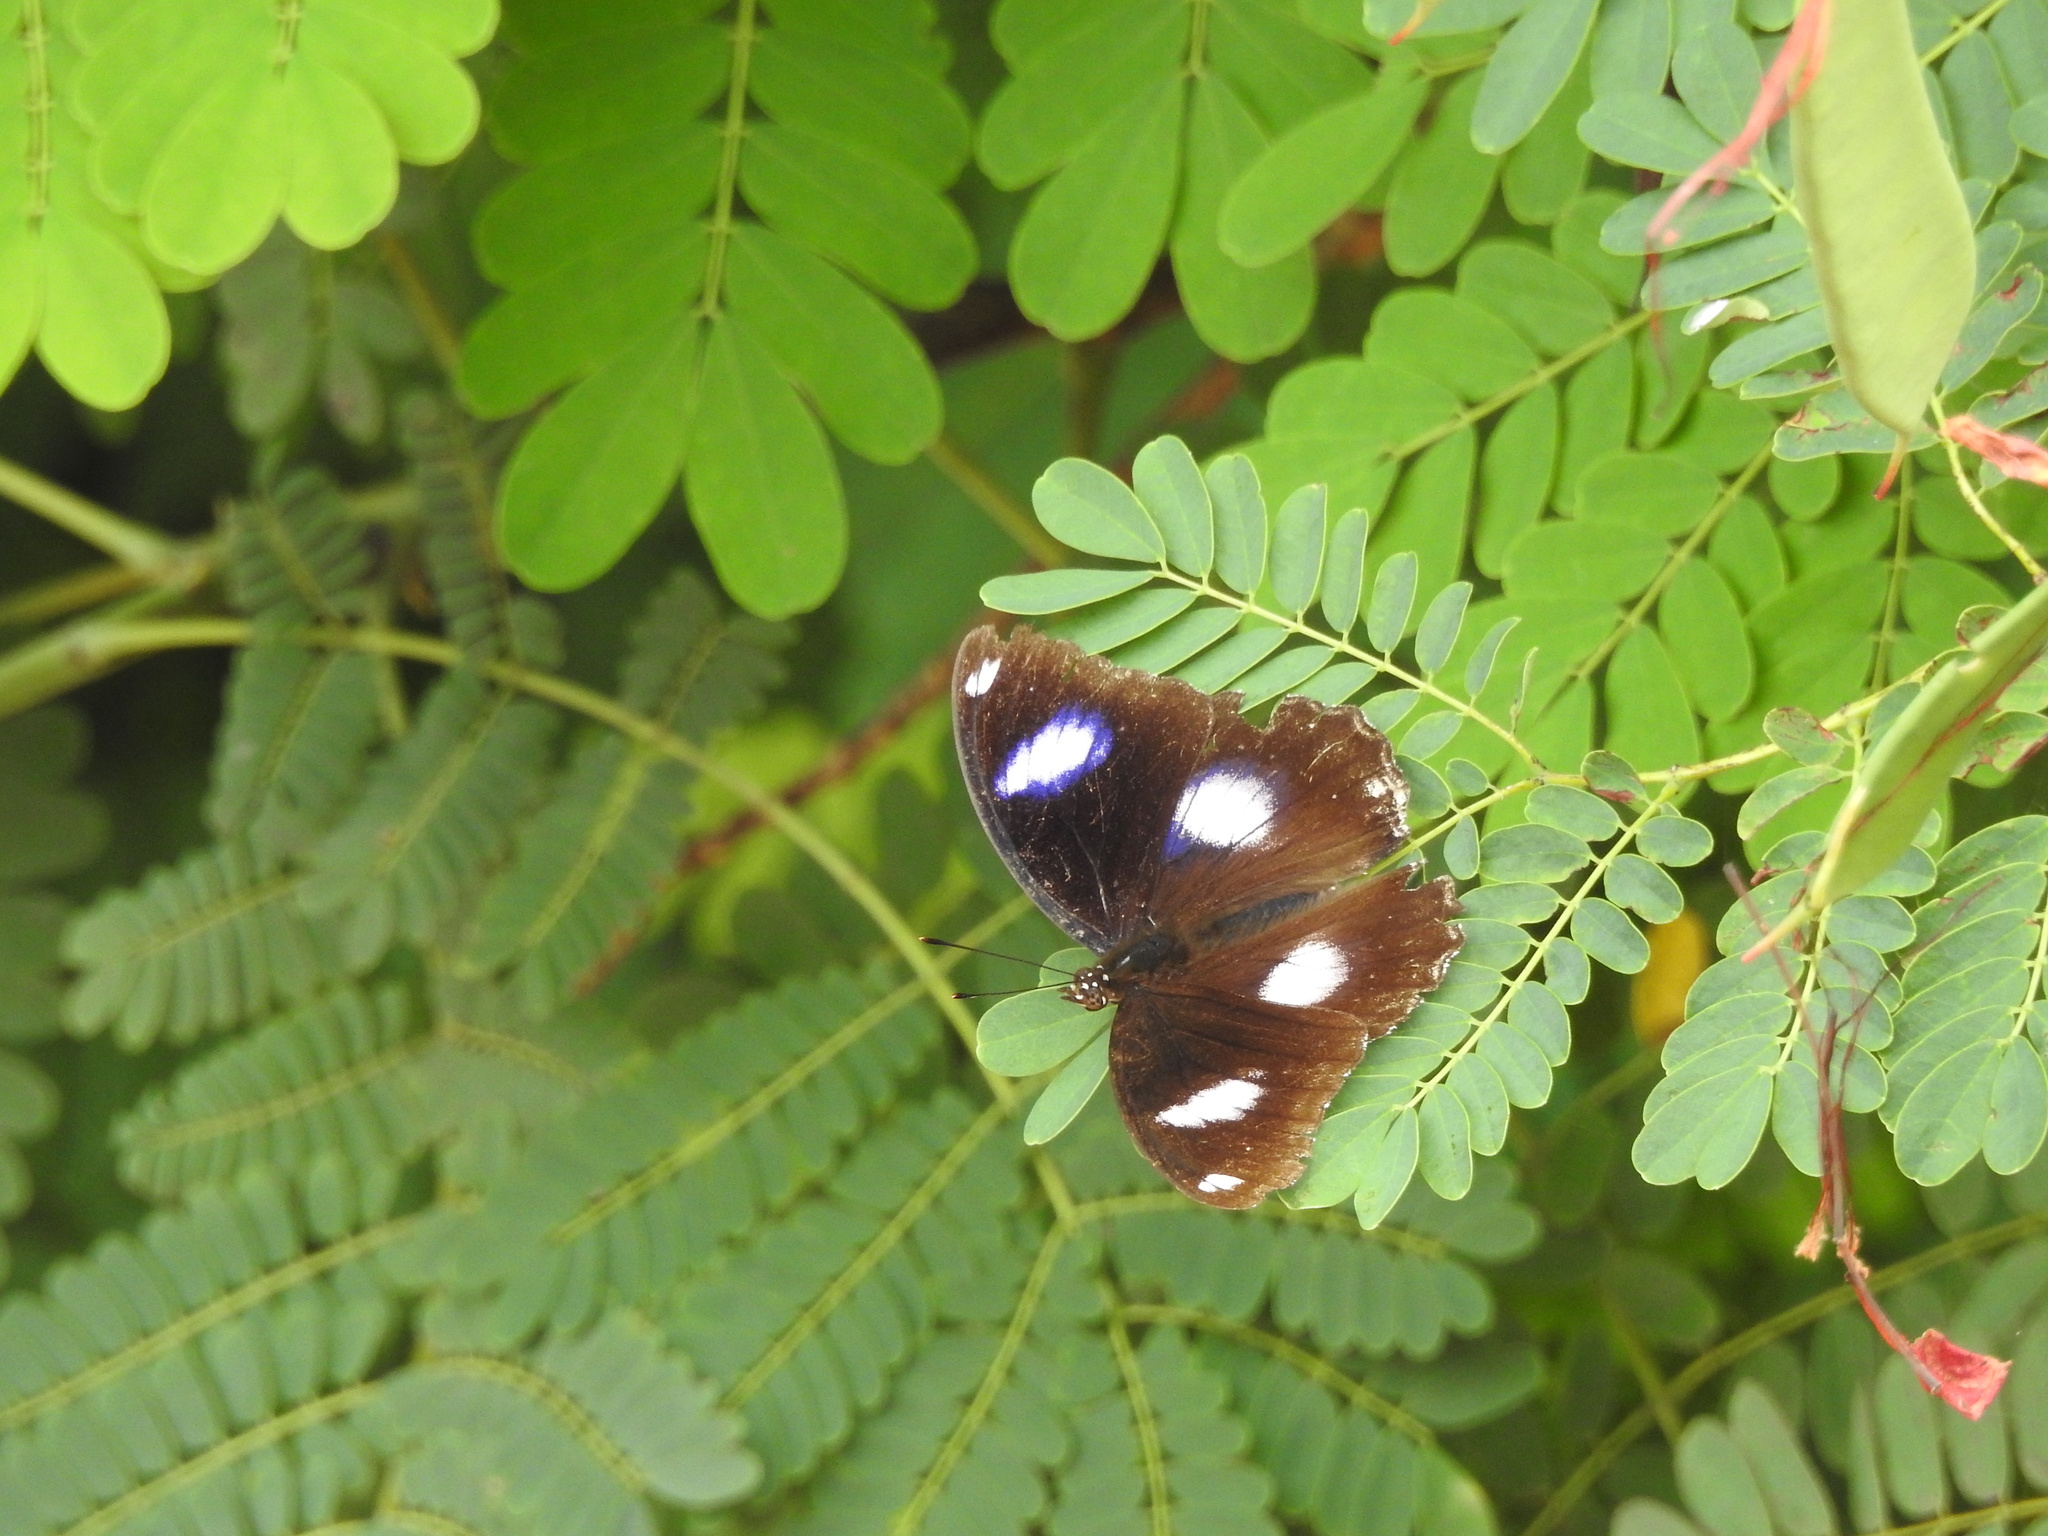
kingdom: Animalia
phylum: Arthropoda
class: Insecta
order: Lepidoptera
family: Nymphalidae
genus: Hypolimnas
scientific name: Hypolimnas bolina
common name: Great eggfly
